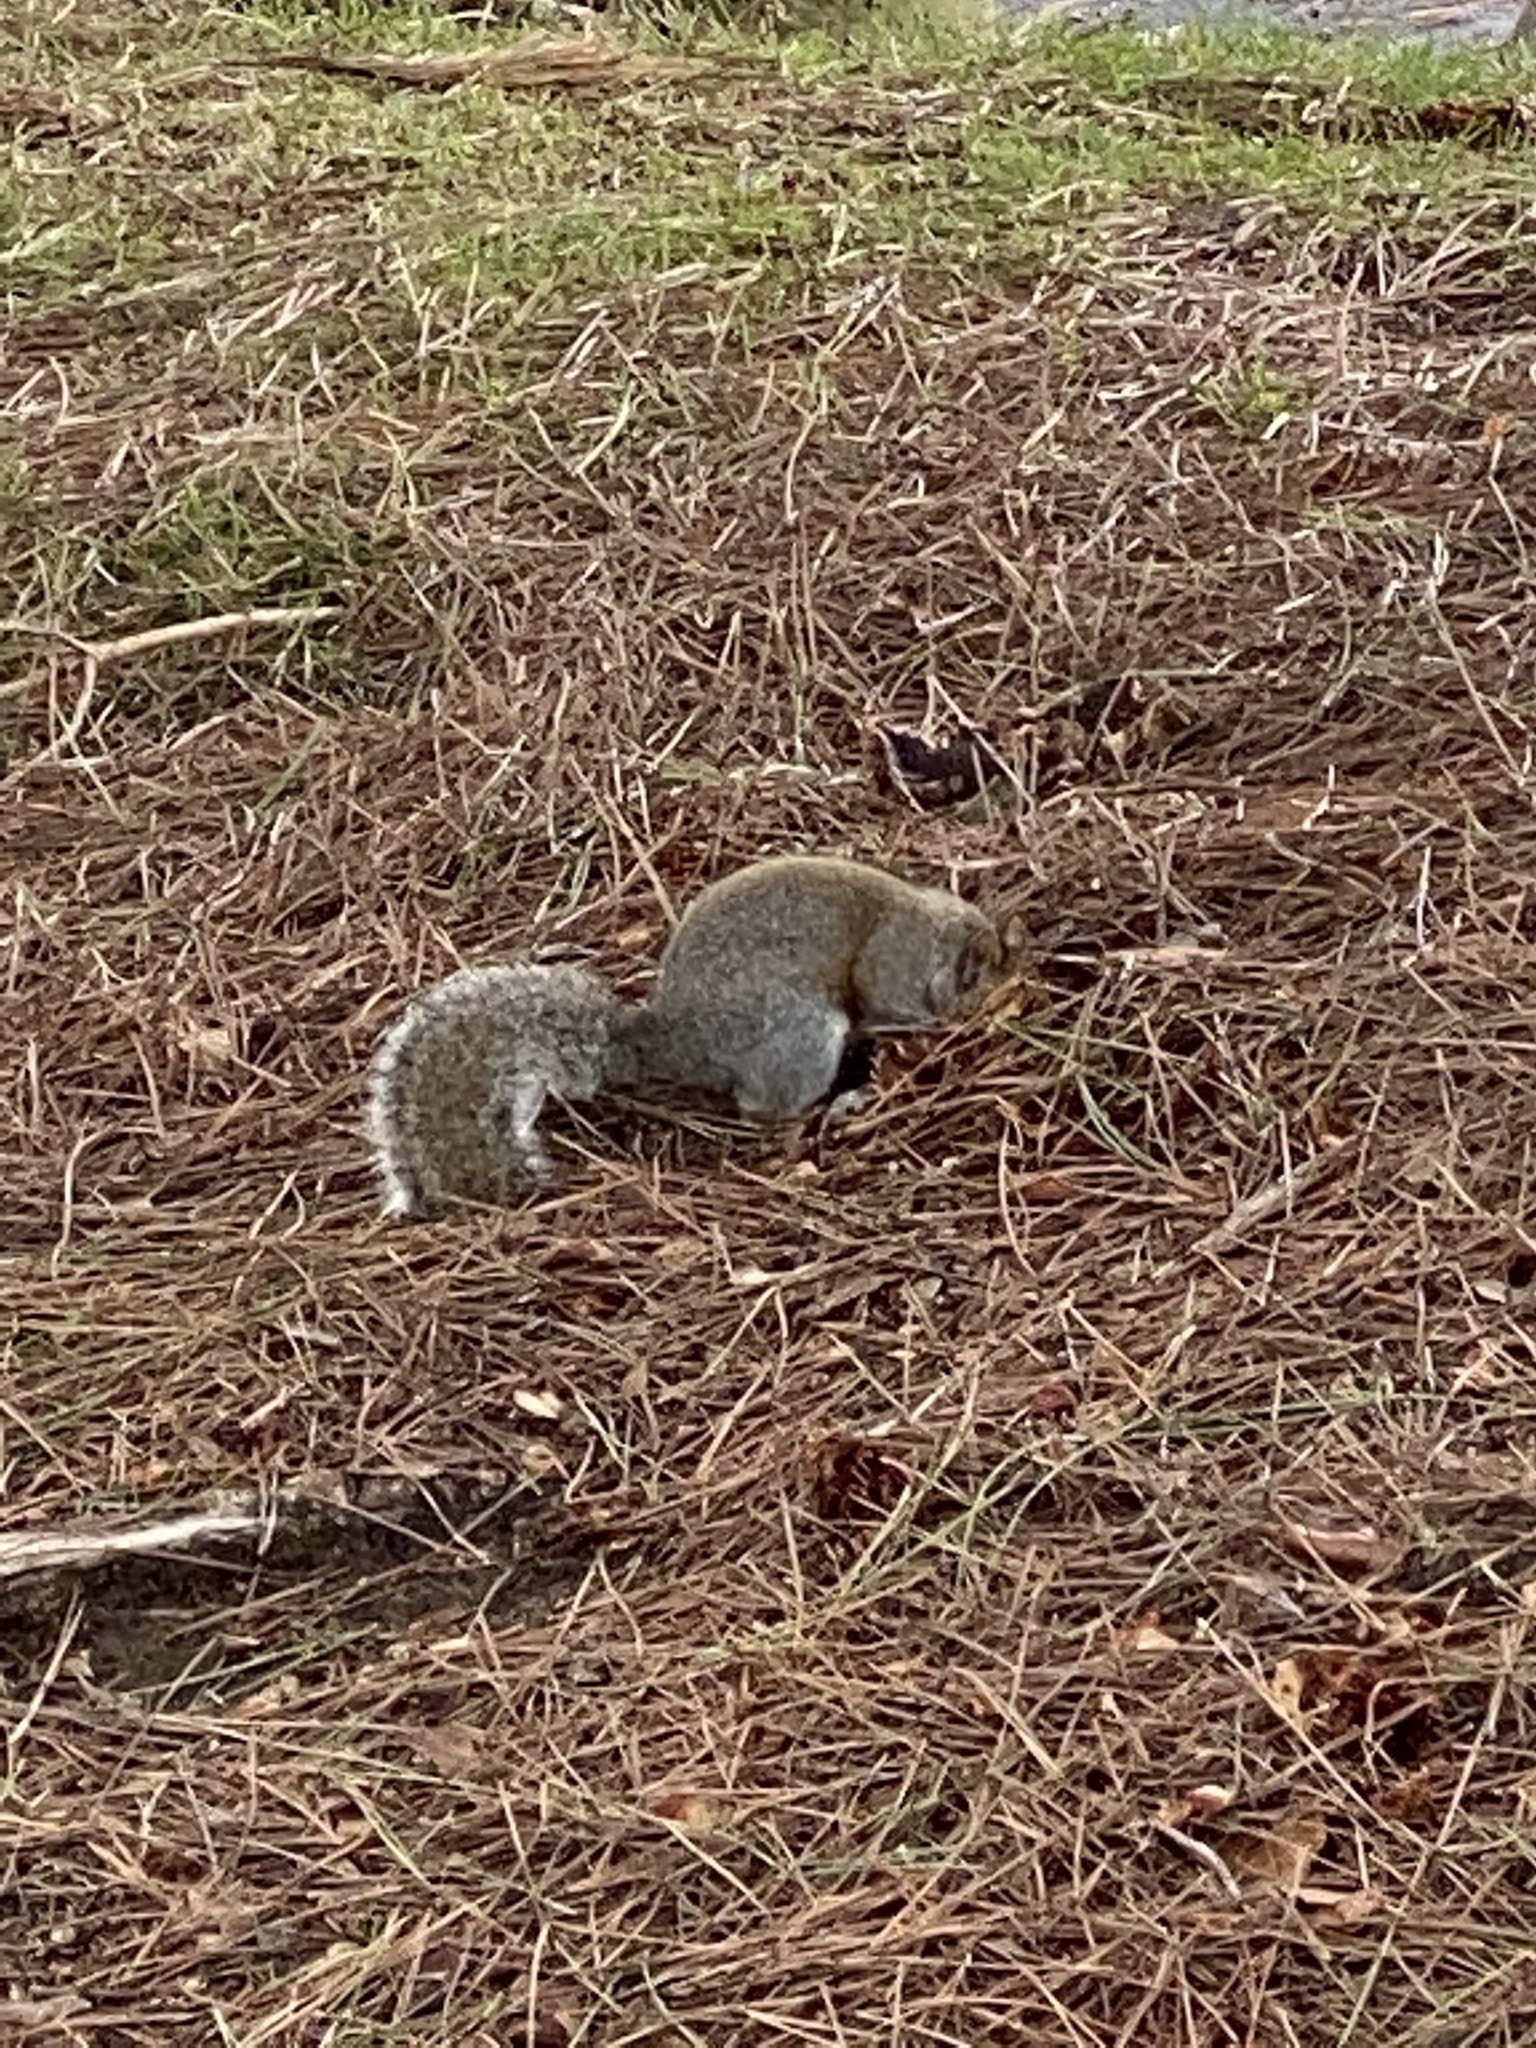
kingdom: Animalia
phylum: Chordata
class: Mammalia
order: Rodentia
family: Sciuridae
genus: Sciurus
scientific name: Sciurus carolinensis
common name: Eastern gray squirrel
